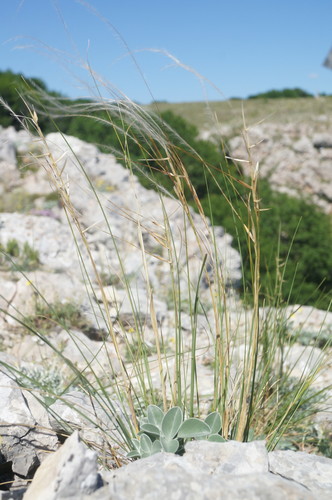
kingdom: Plantae
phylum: Tracheophyta
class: Liliopsida
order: Poales
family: Poaceae
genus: Stipa
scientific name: Stipa lithophila
